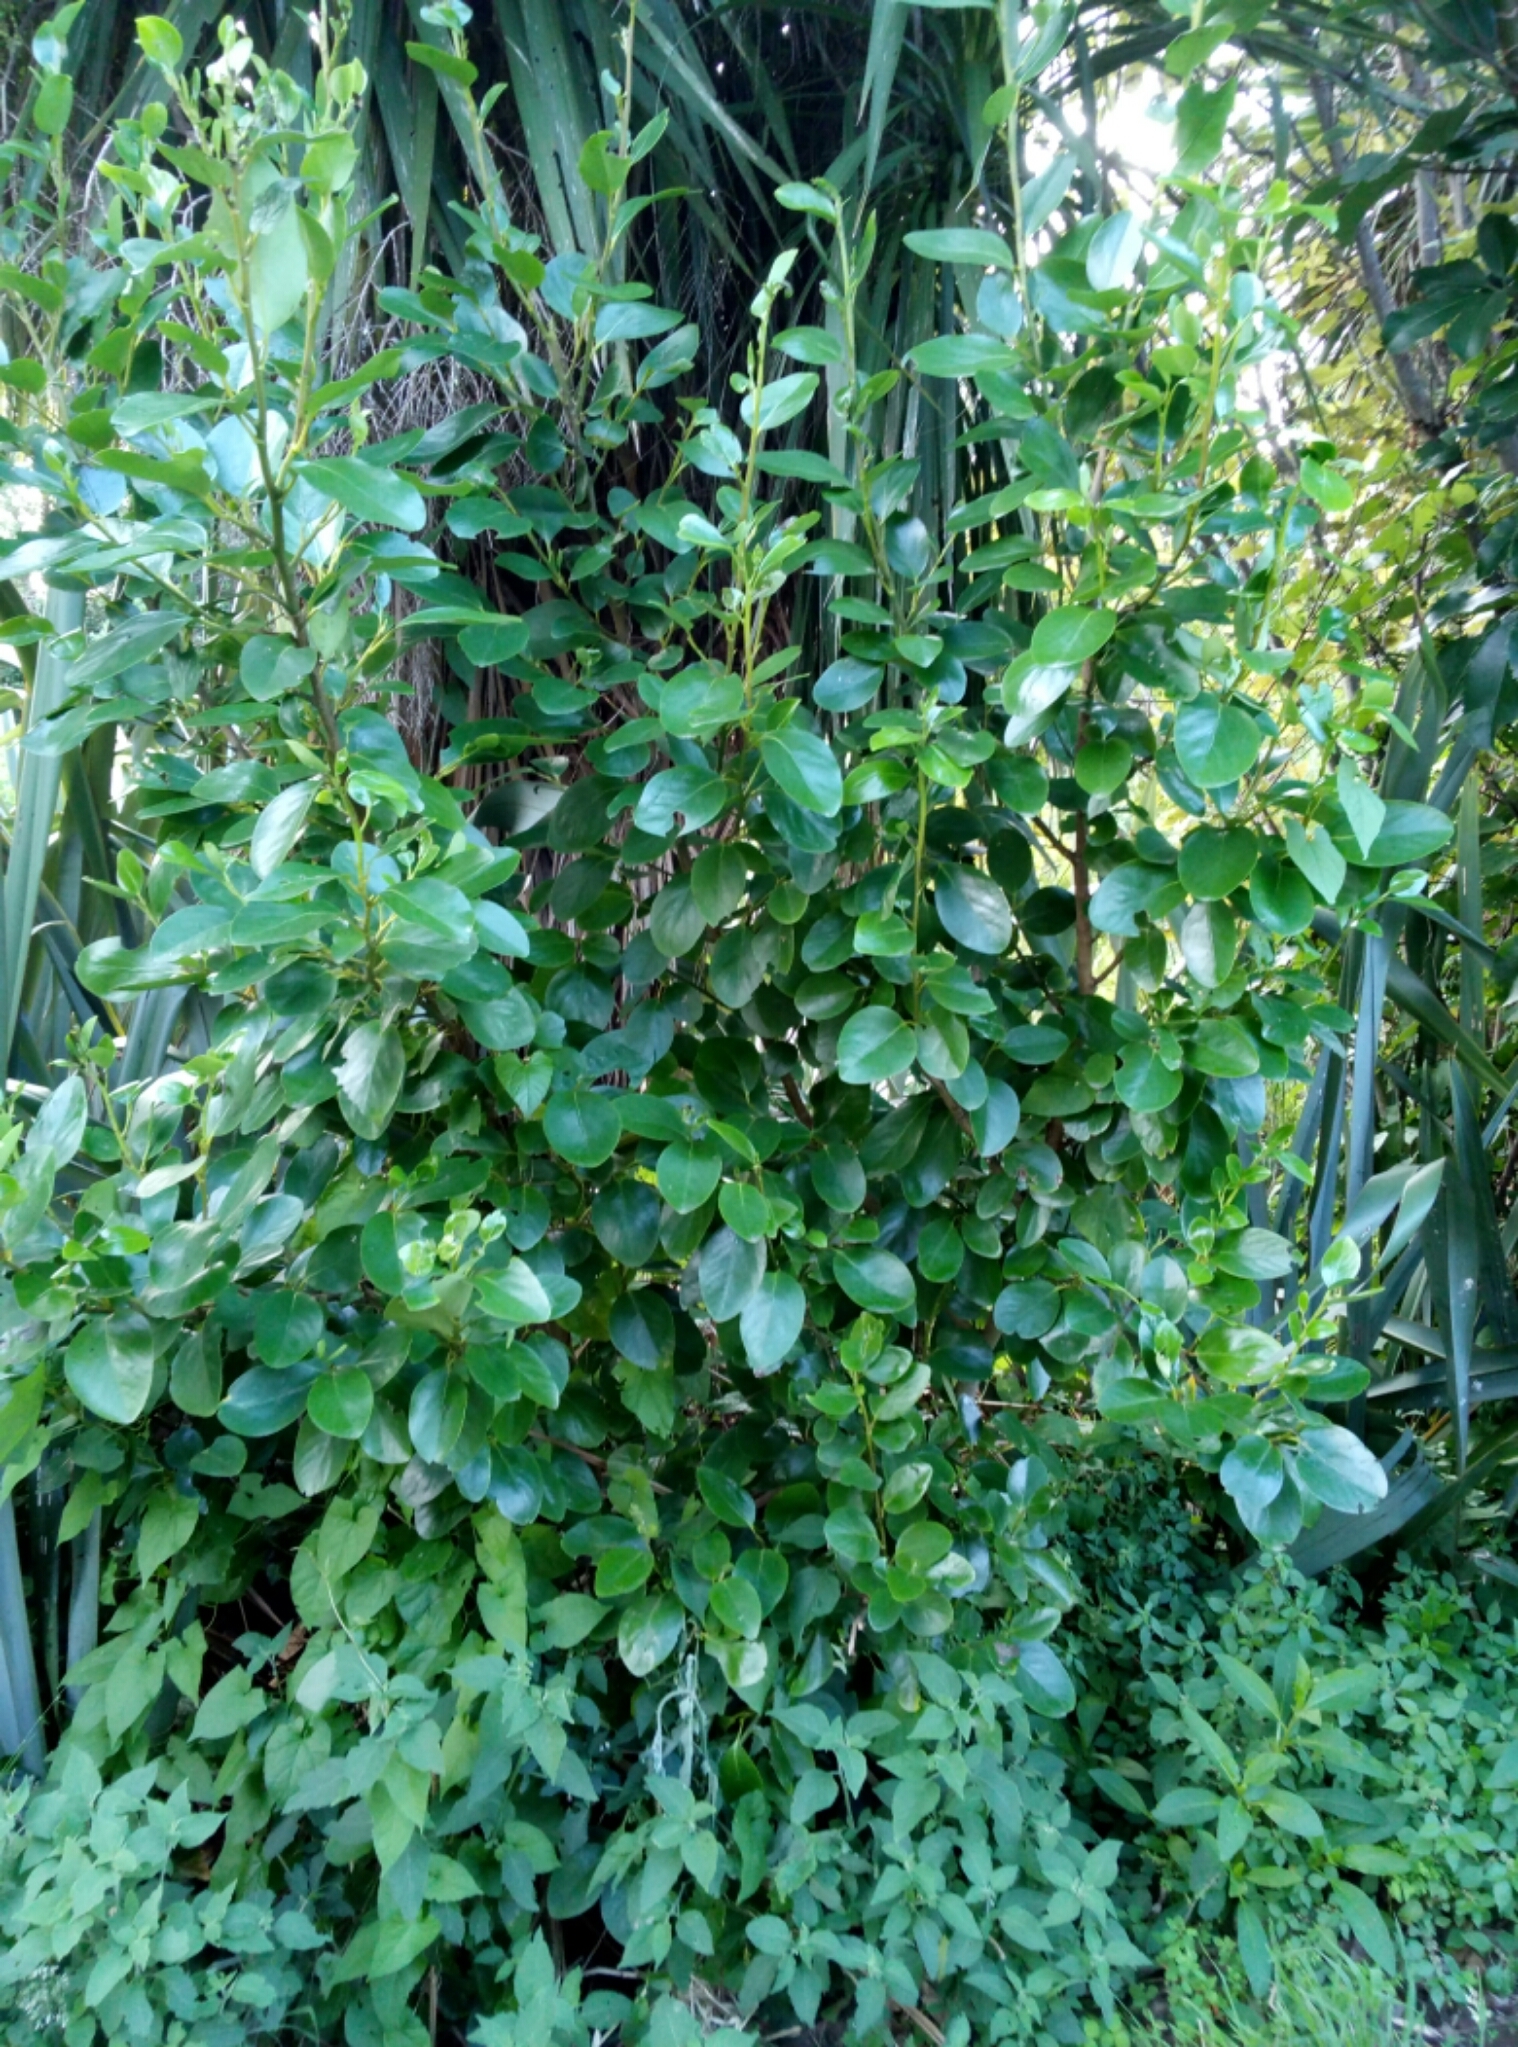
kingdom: Plantae
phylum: Tracheophyta
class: Magnoliopsida
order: Apiales
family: Griseliniaceae
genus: Griselinia
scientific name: Griselinia littoralis
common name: New zealand broadleaf
